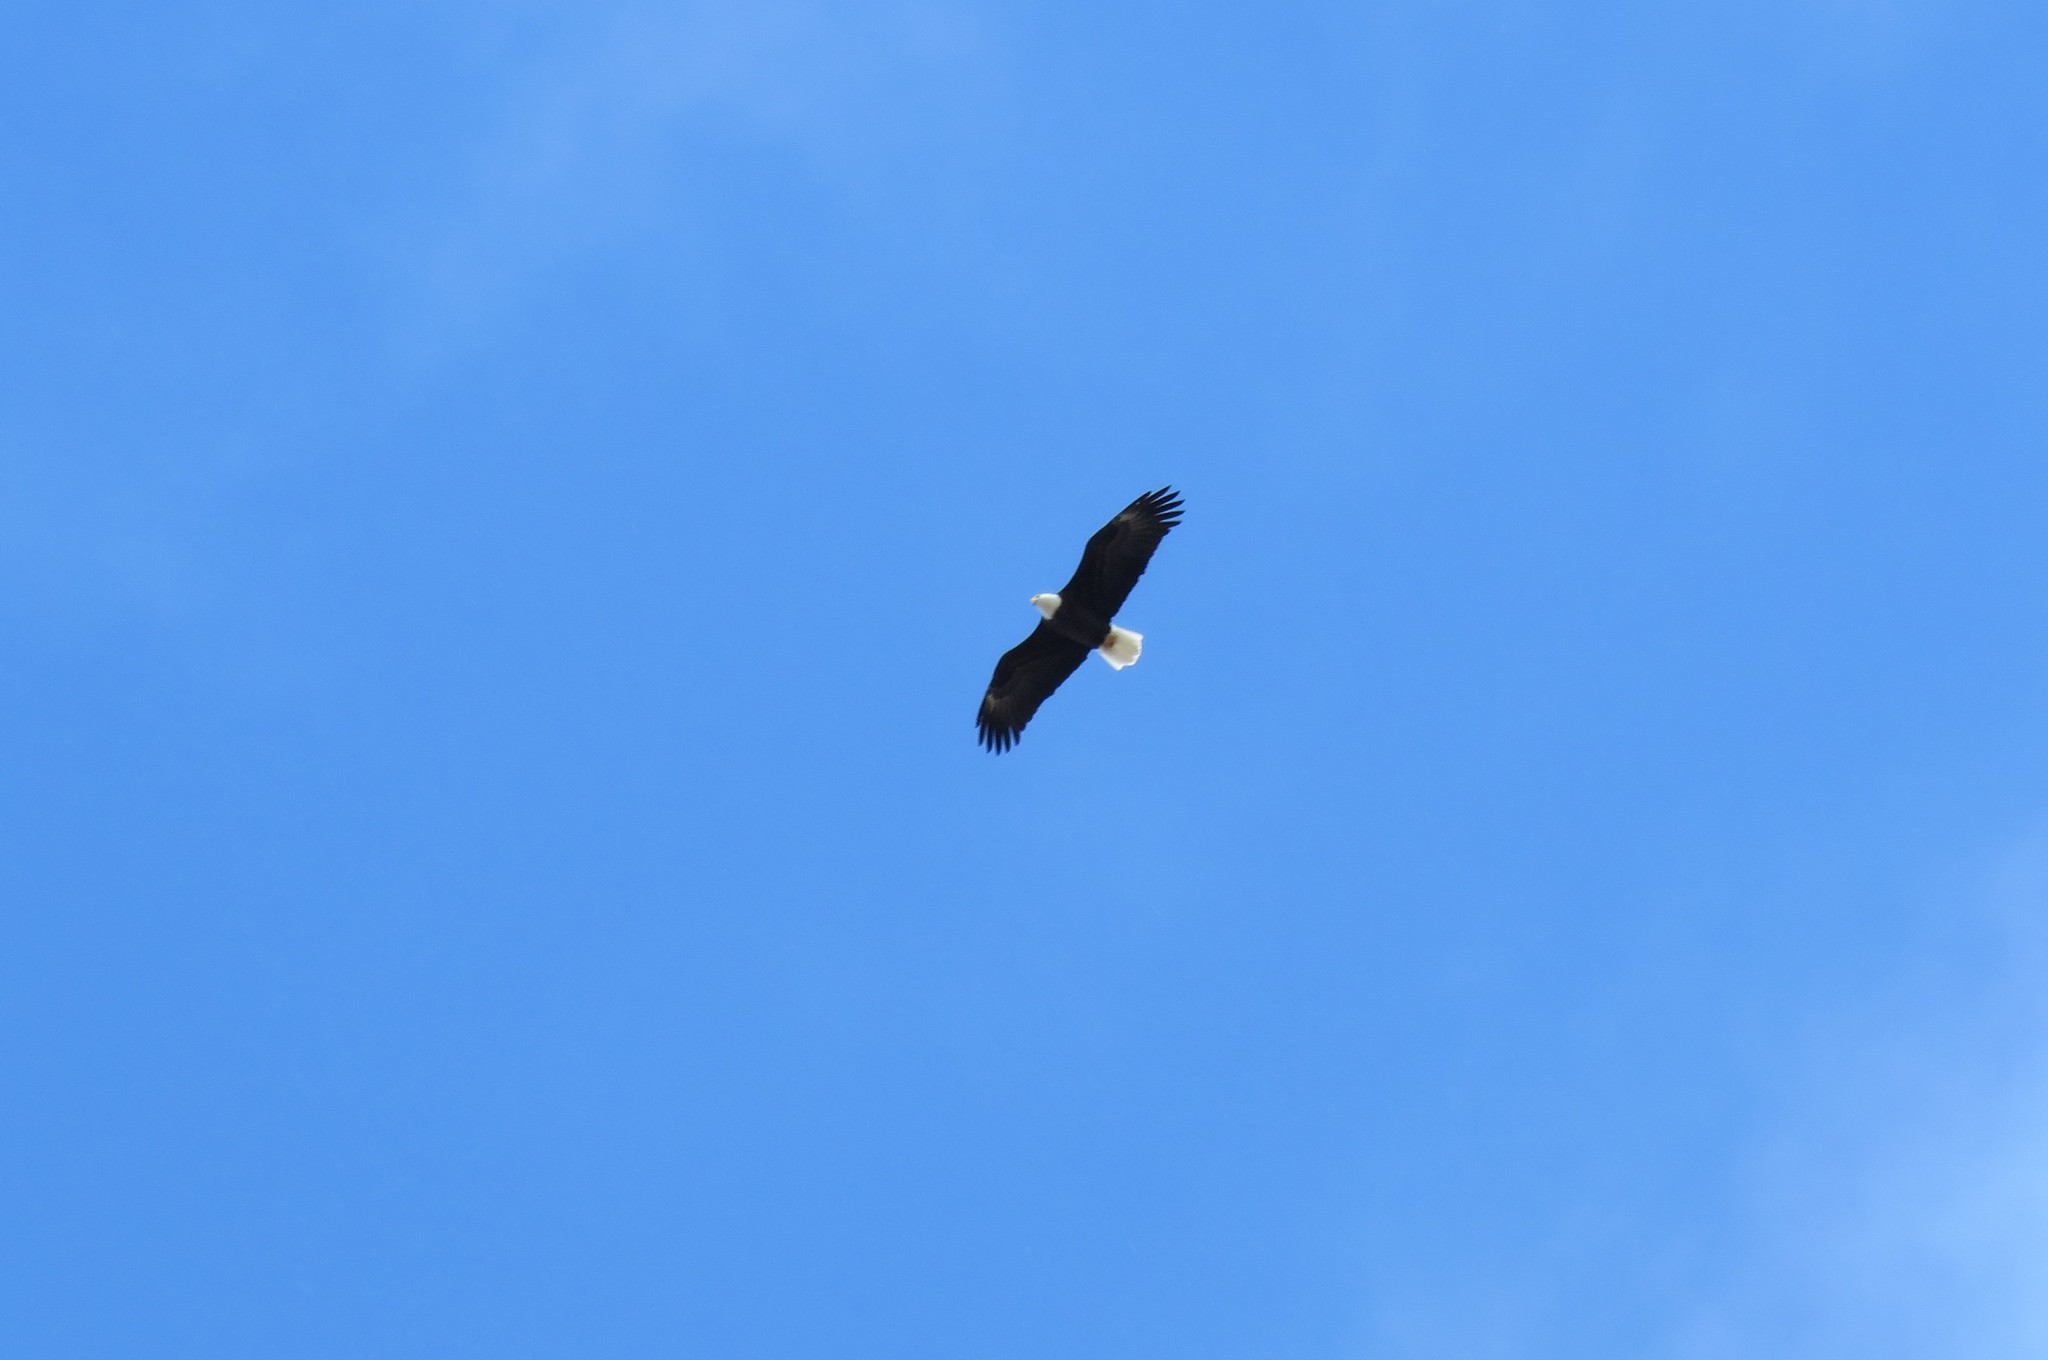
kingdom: Animalia
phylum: Chordata
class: Aves
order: Accipitriformes
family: Accipitridae
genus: Haliaeetus
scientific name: Haliaeetus leucocephalus
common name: Bald eagle
